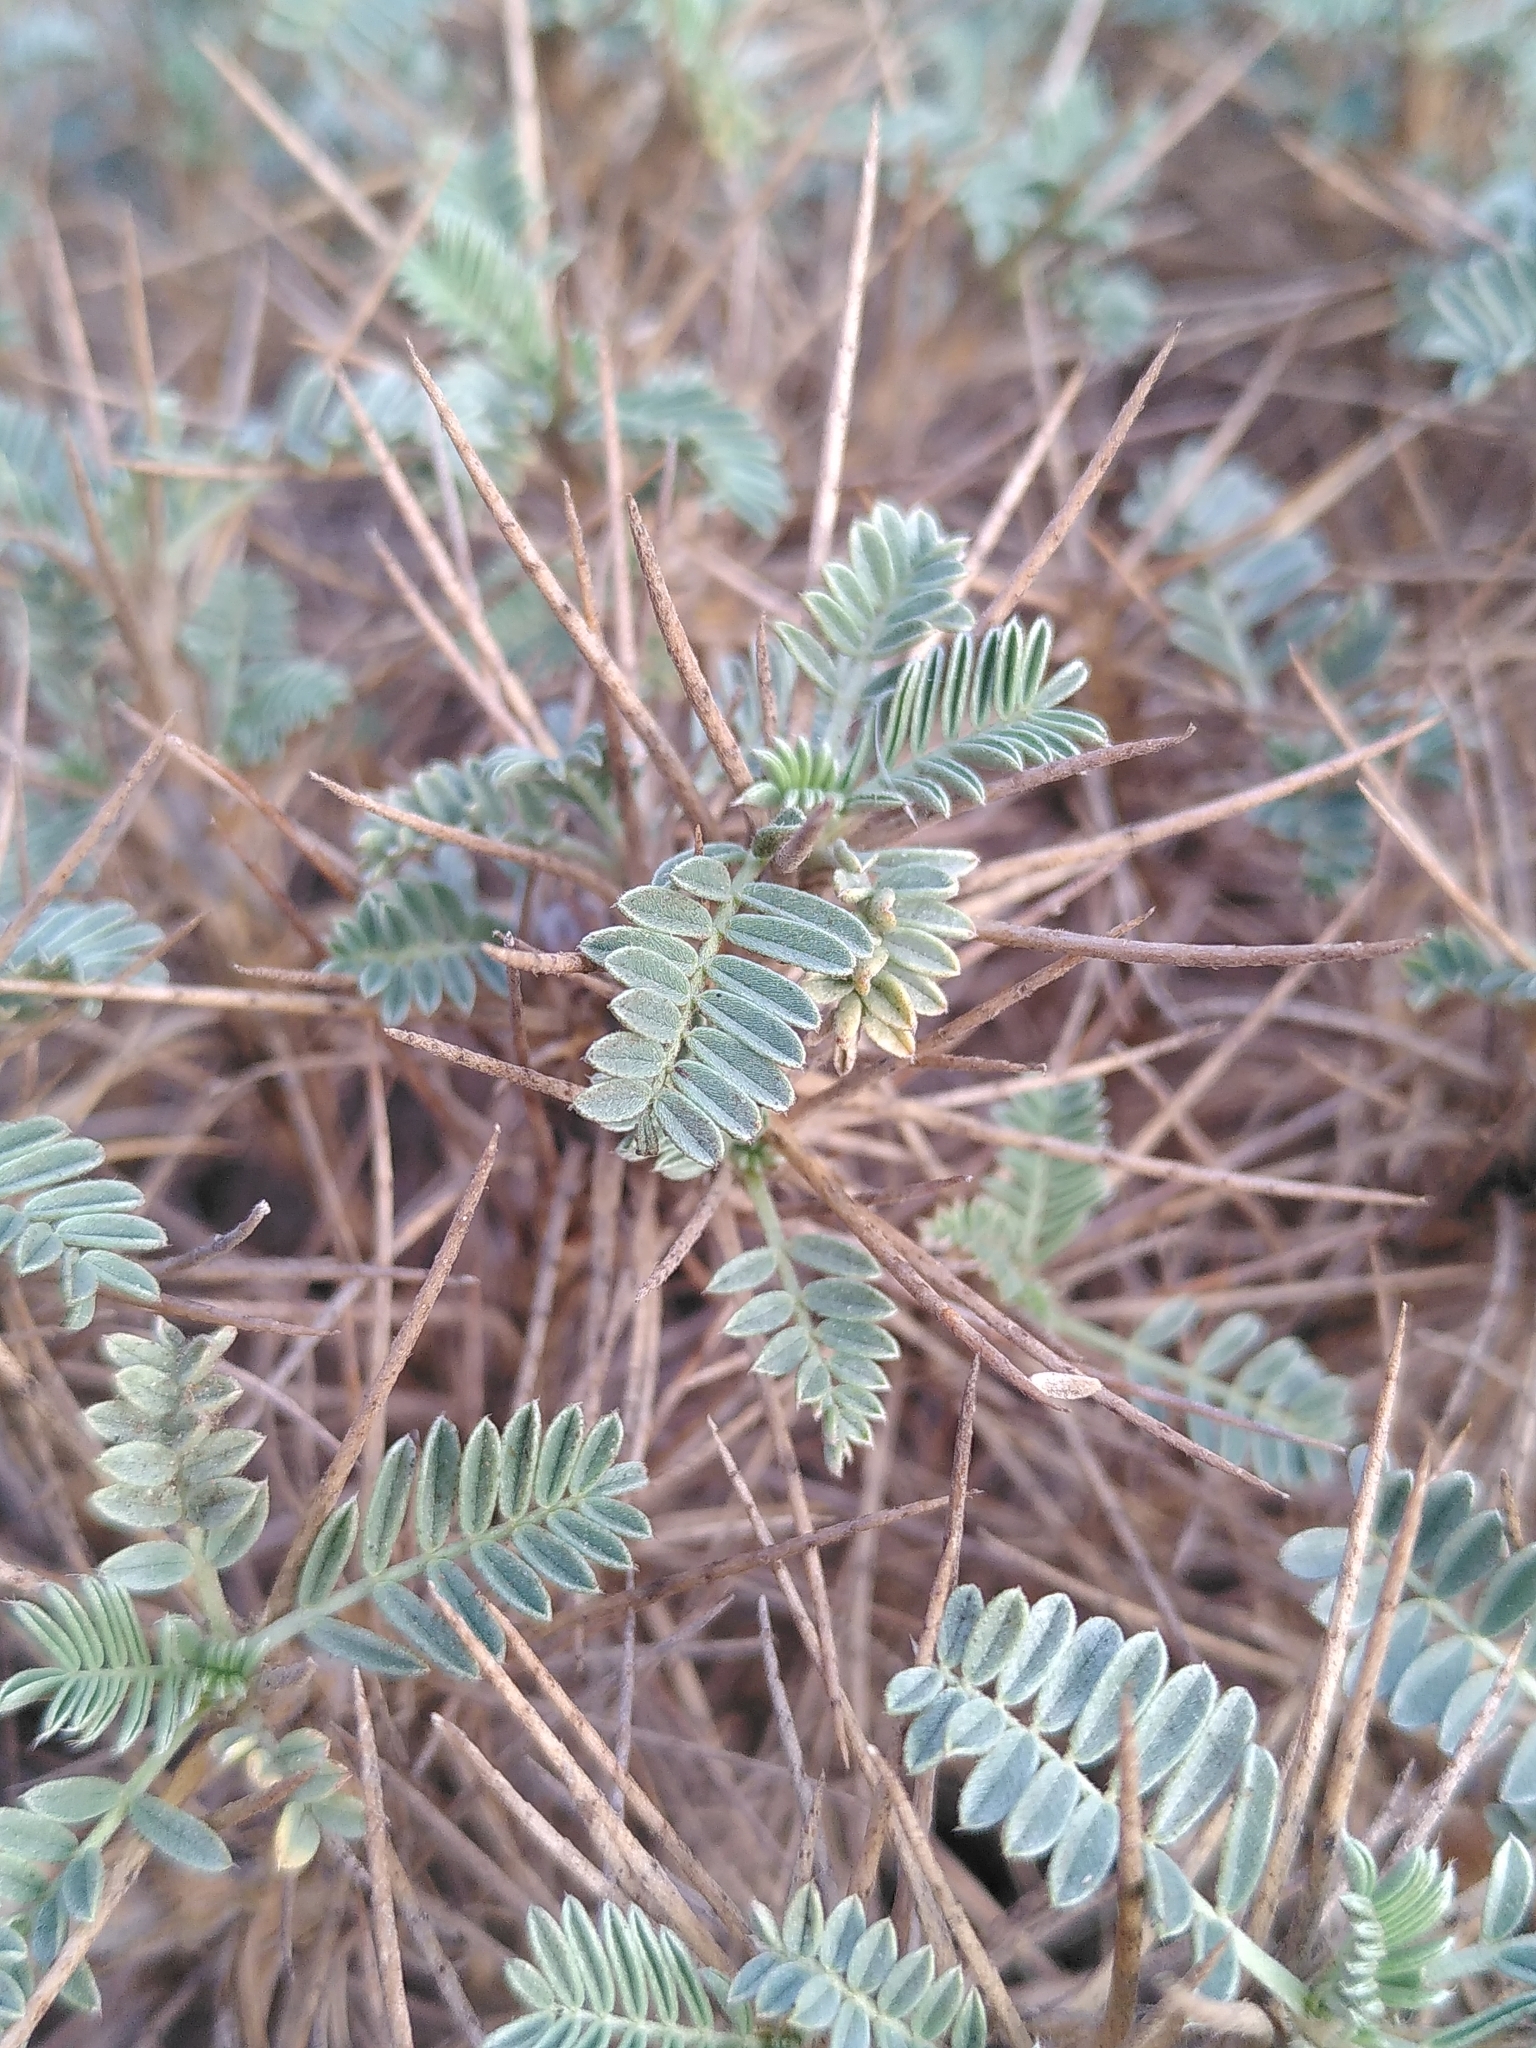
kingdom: Plantae
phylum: Tracheophyta
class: Magnoliopsida
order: Fabales
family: Fabaceae
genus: Astragalus
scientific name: Astragalus tragacantha
